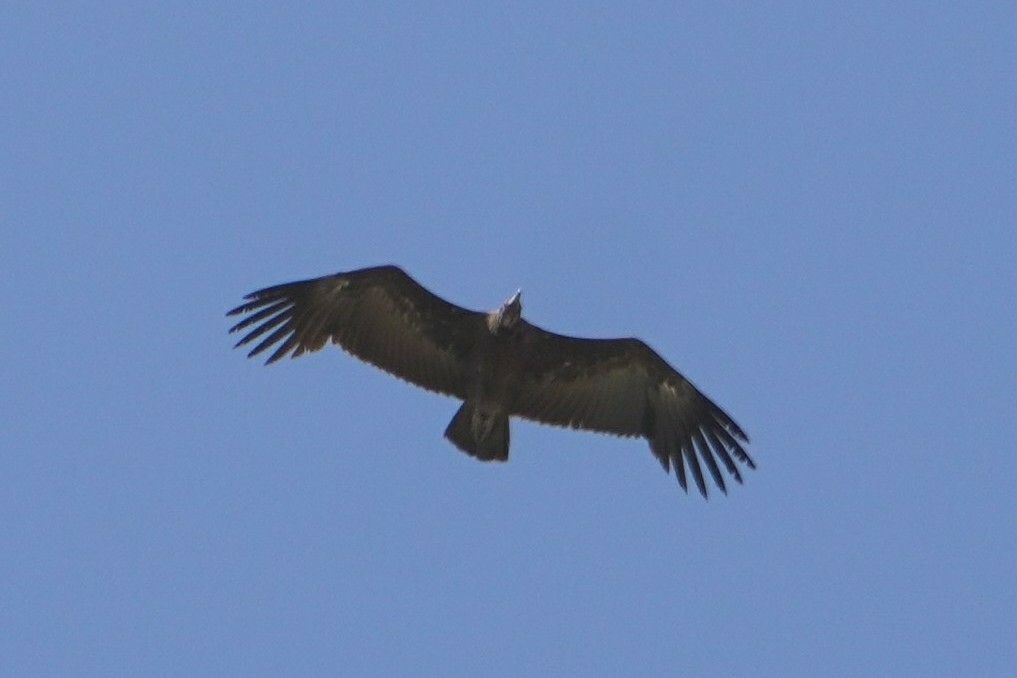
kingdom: Animalia
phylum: Chordata
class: Aves
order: Accipitriformes
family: Accipitridae
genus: Necrosyrtes
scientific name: Necrosyrtes monachus
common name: Hooded vulture
